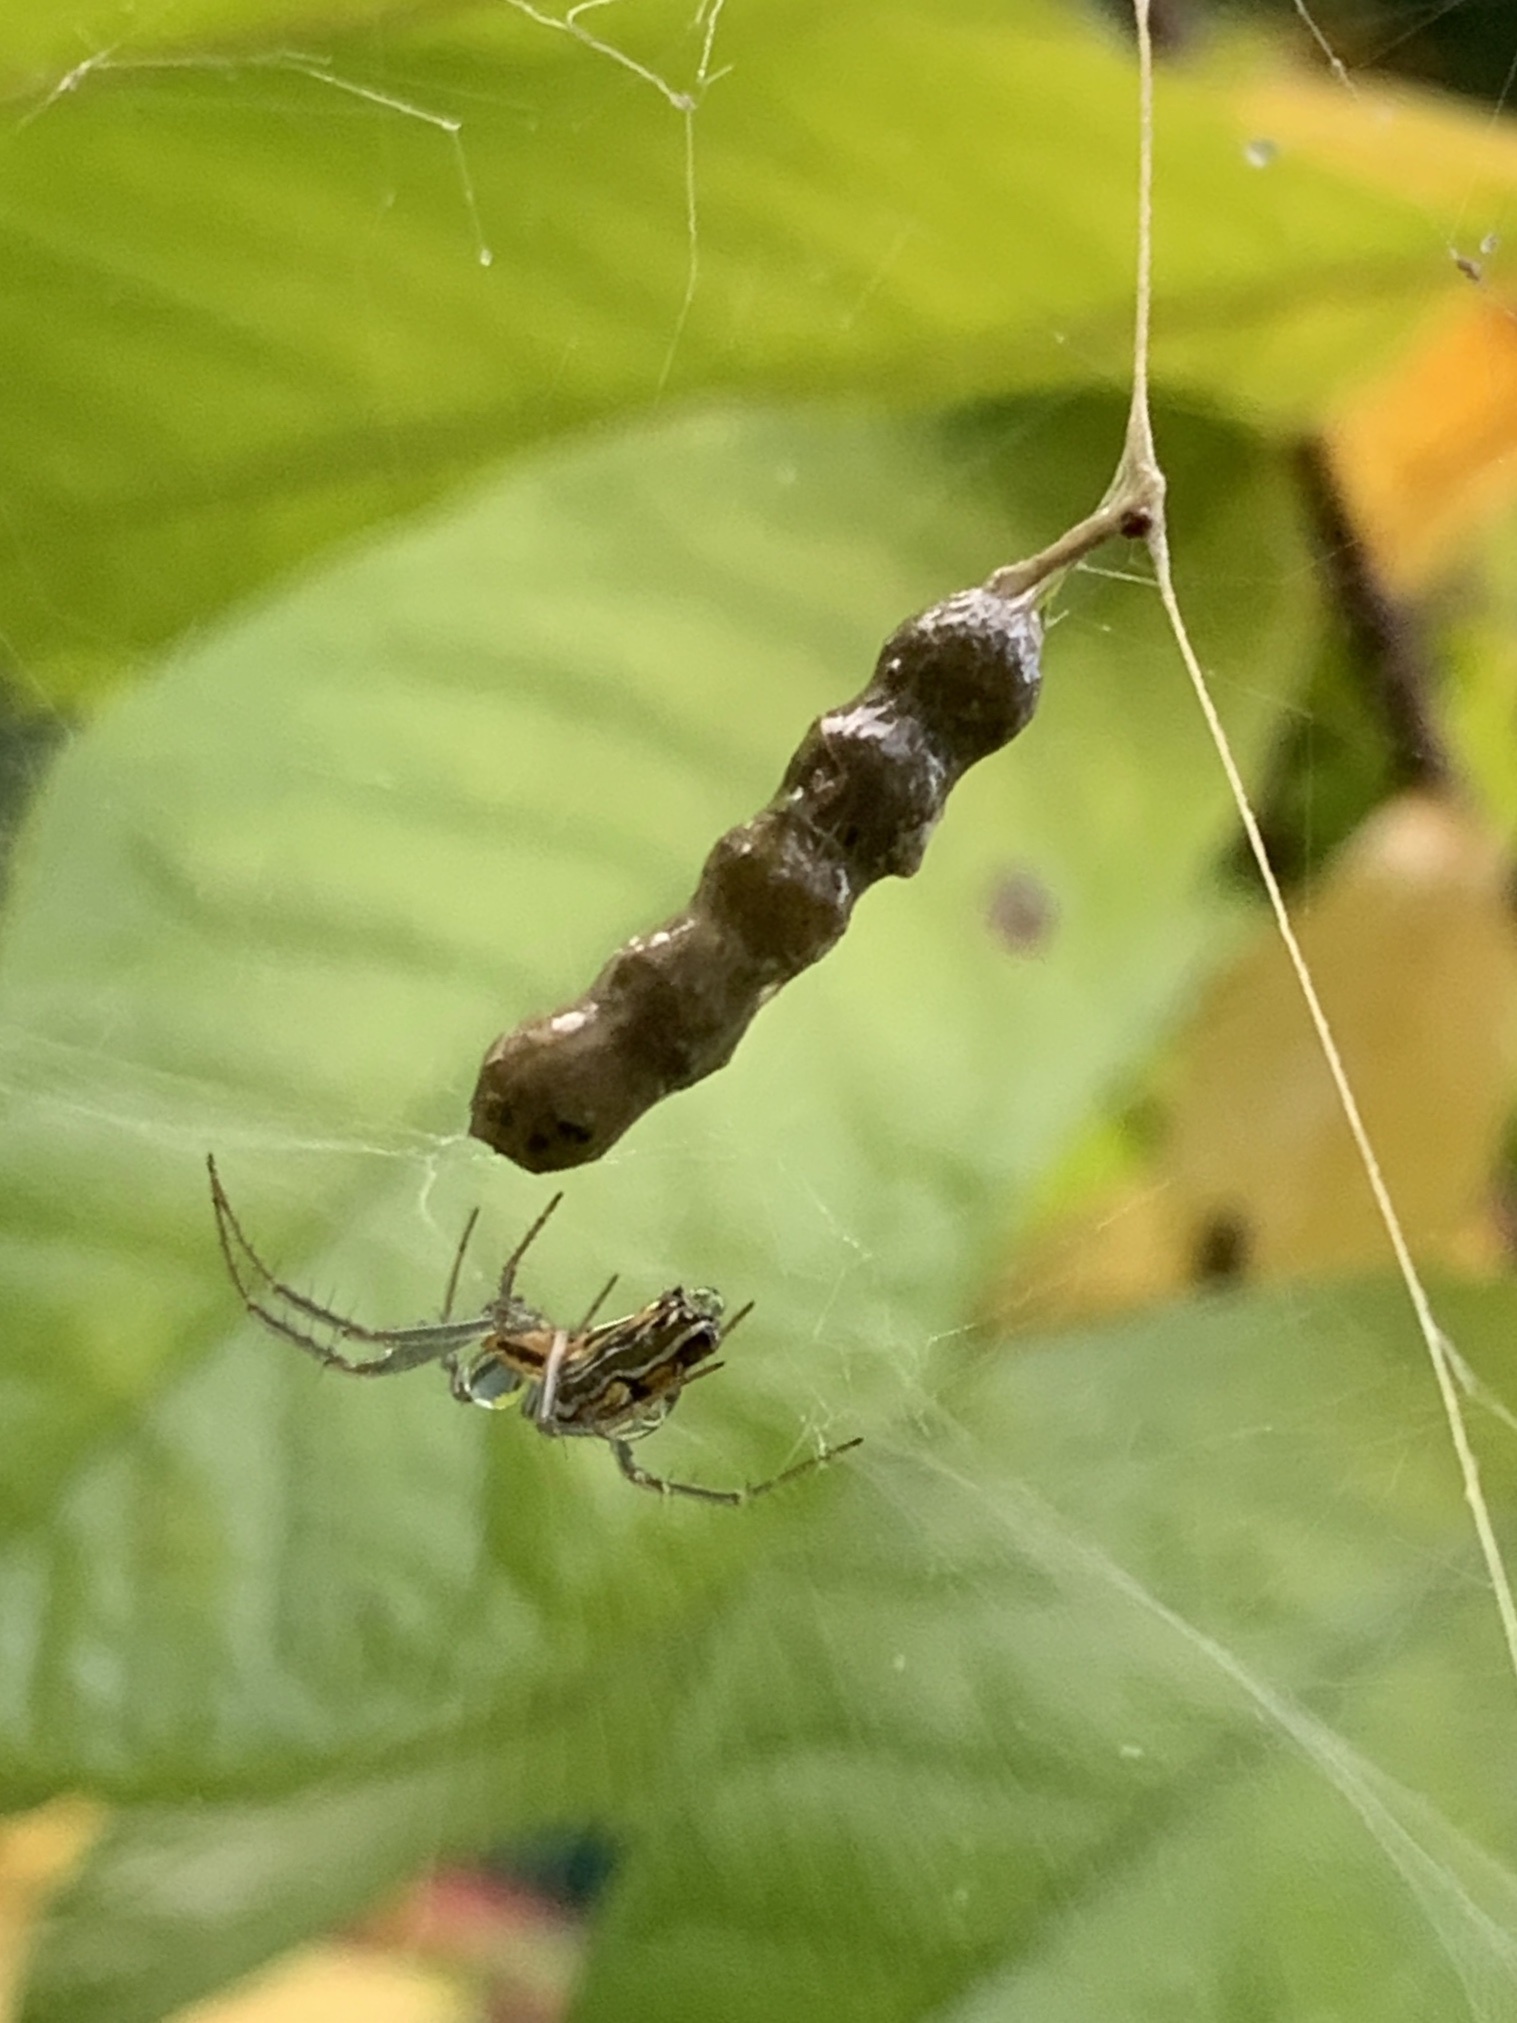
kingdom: Animalia
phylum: Arthropoda
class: Arachnida
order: Araneae
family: Araneidae
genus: Mecynogea
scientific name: Mecynogea lemniscata
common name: Orb weavers
